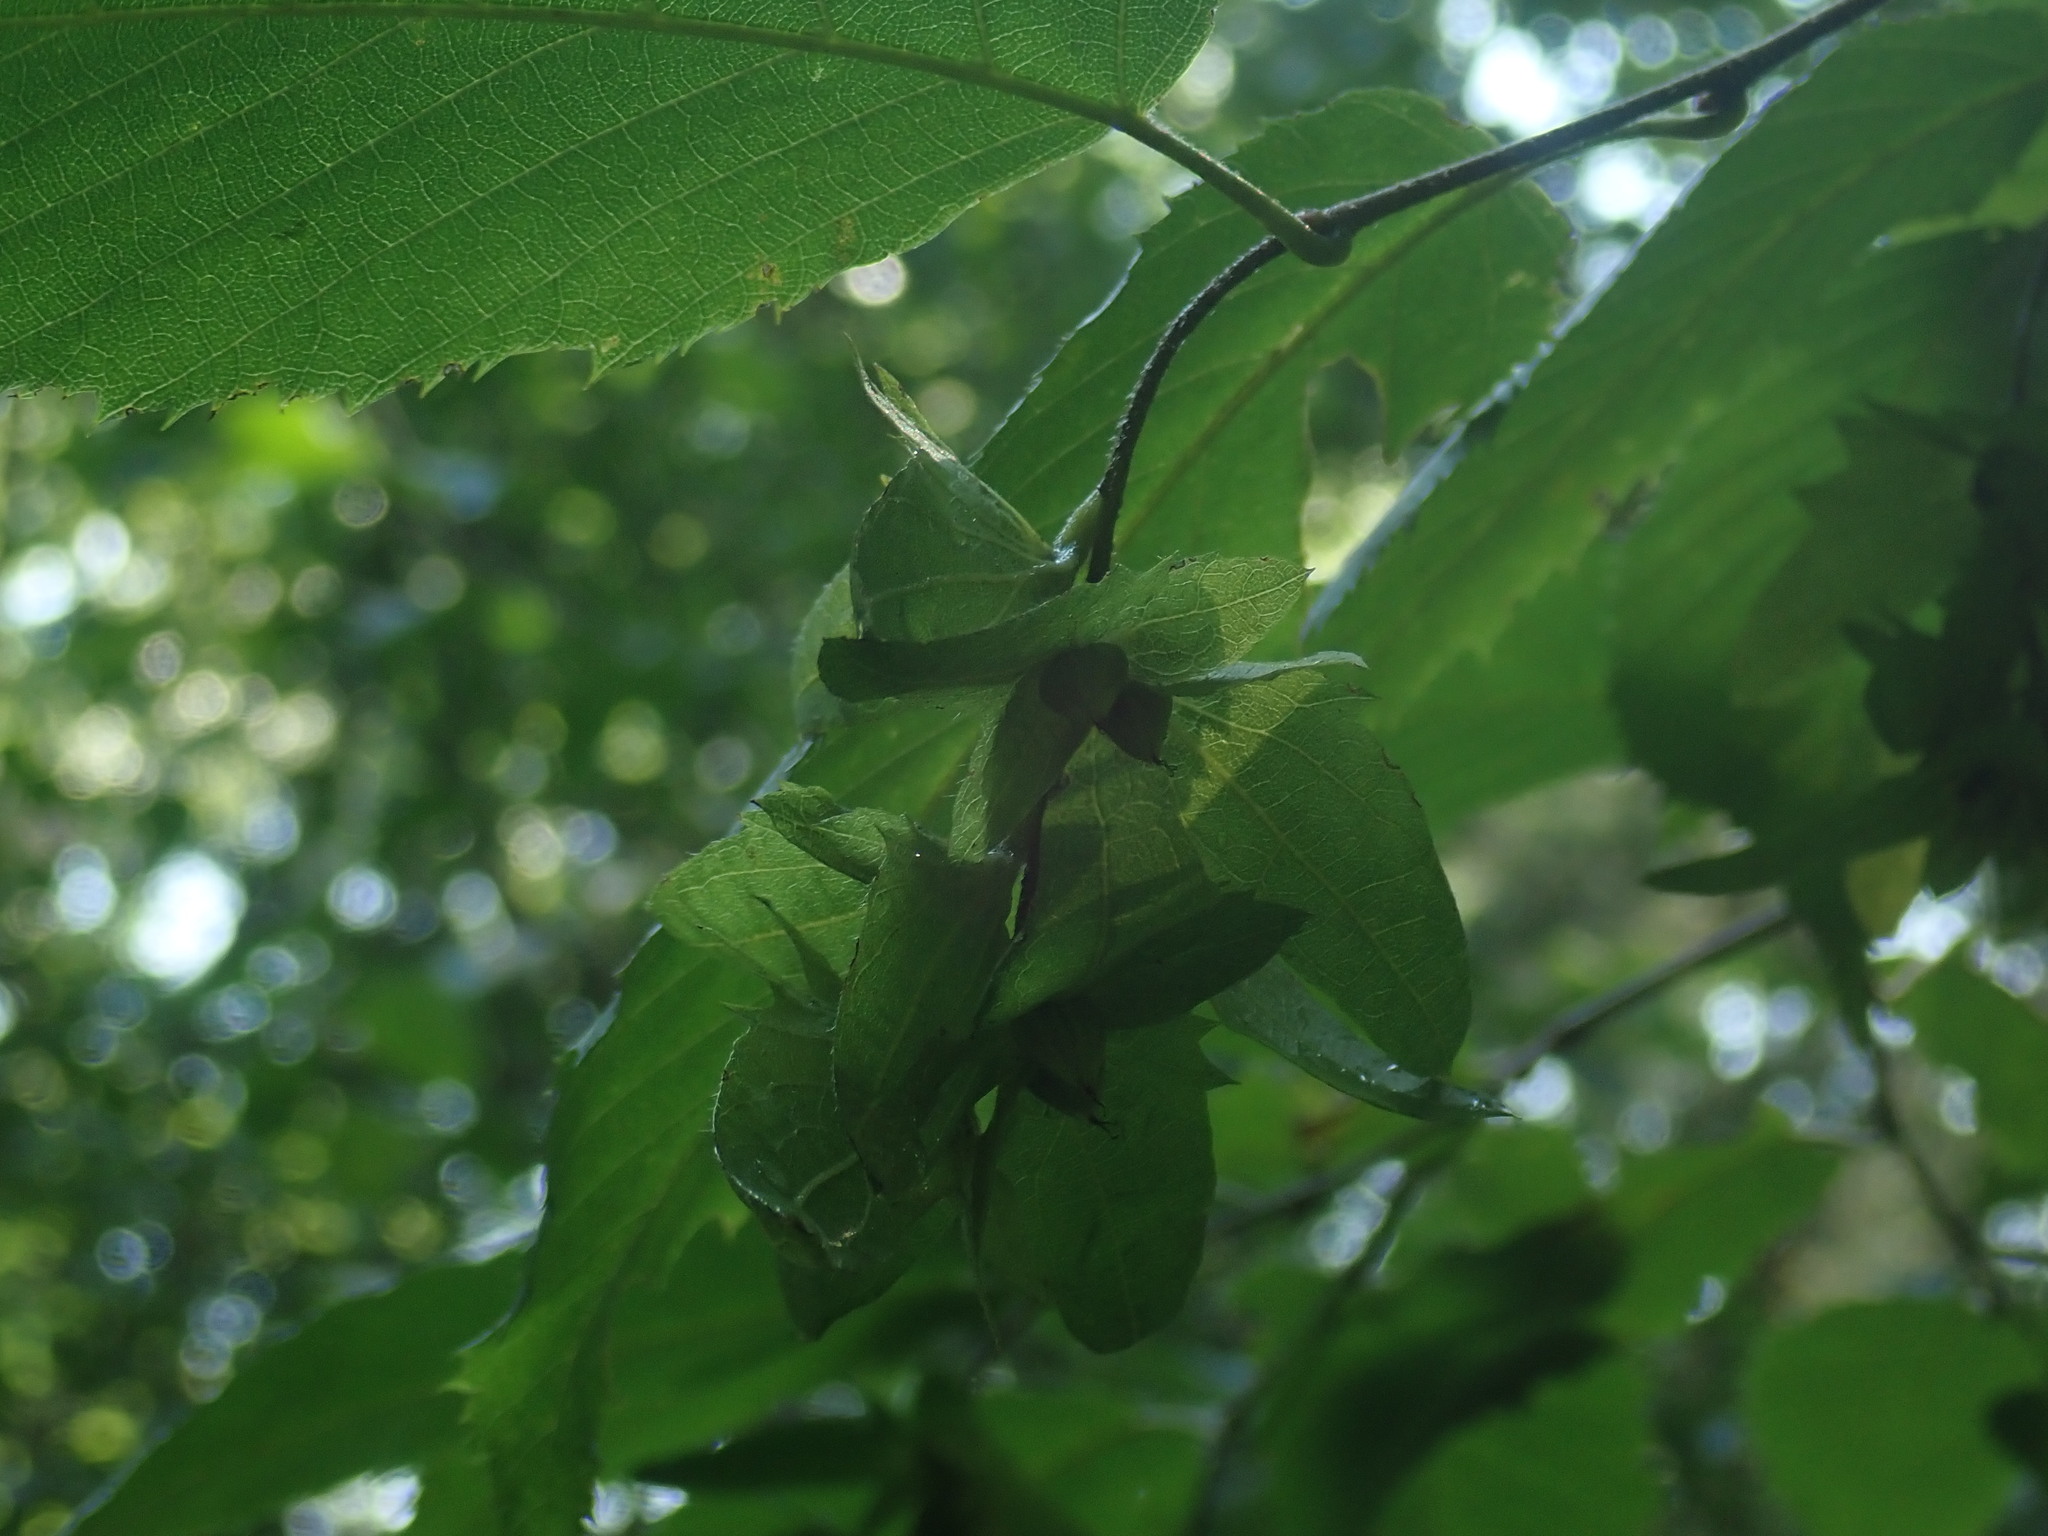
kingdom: Plantae
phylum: Tracheophyta
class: Magnoliopsida
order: Fagales
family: Betulaceae
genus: Carpinus
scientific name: Carpinus caroliniana
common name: American hornbeam
